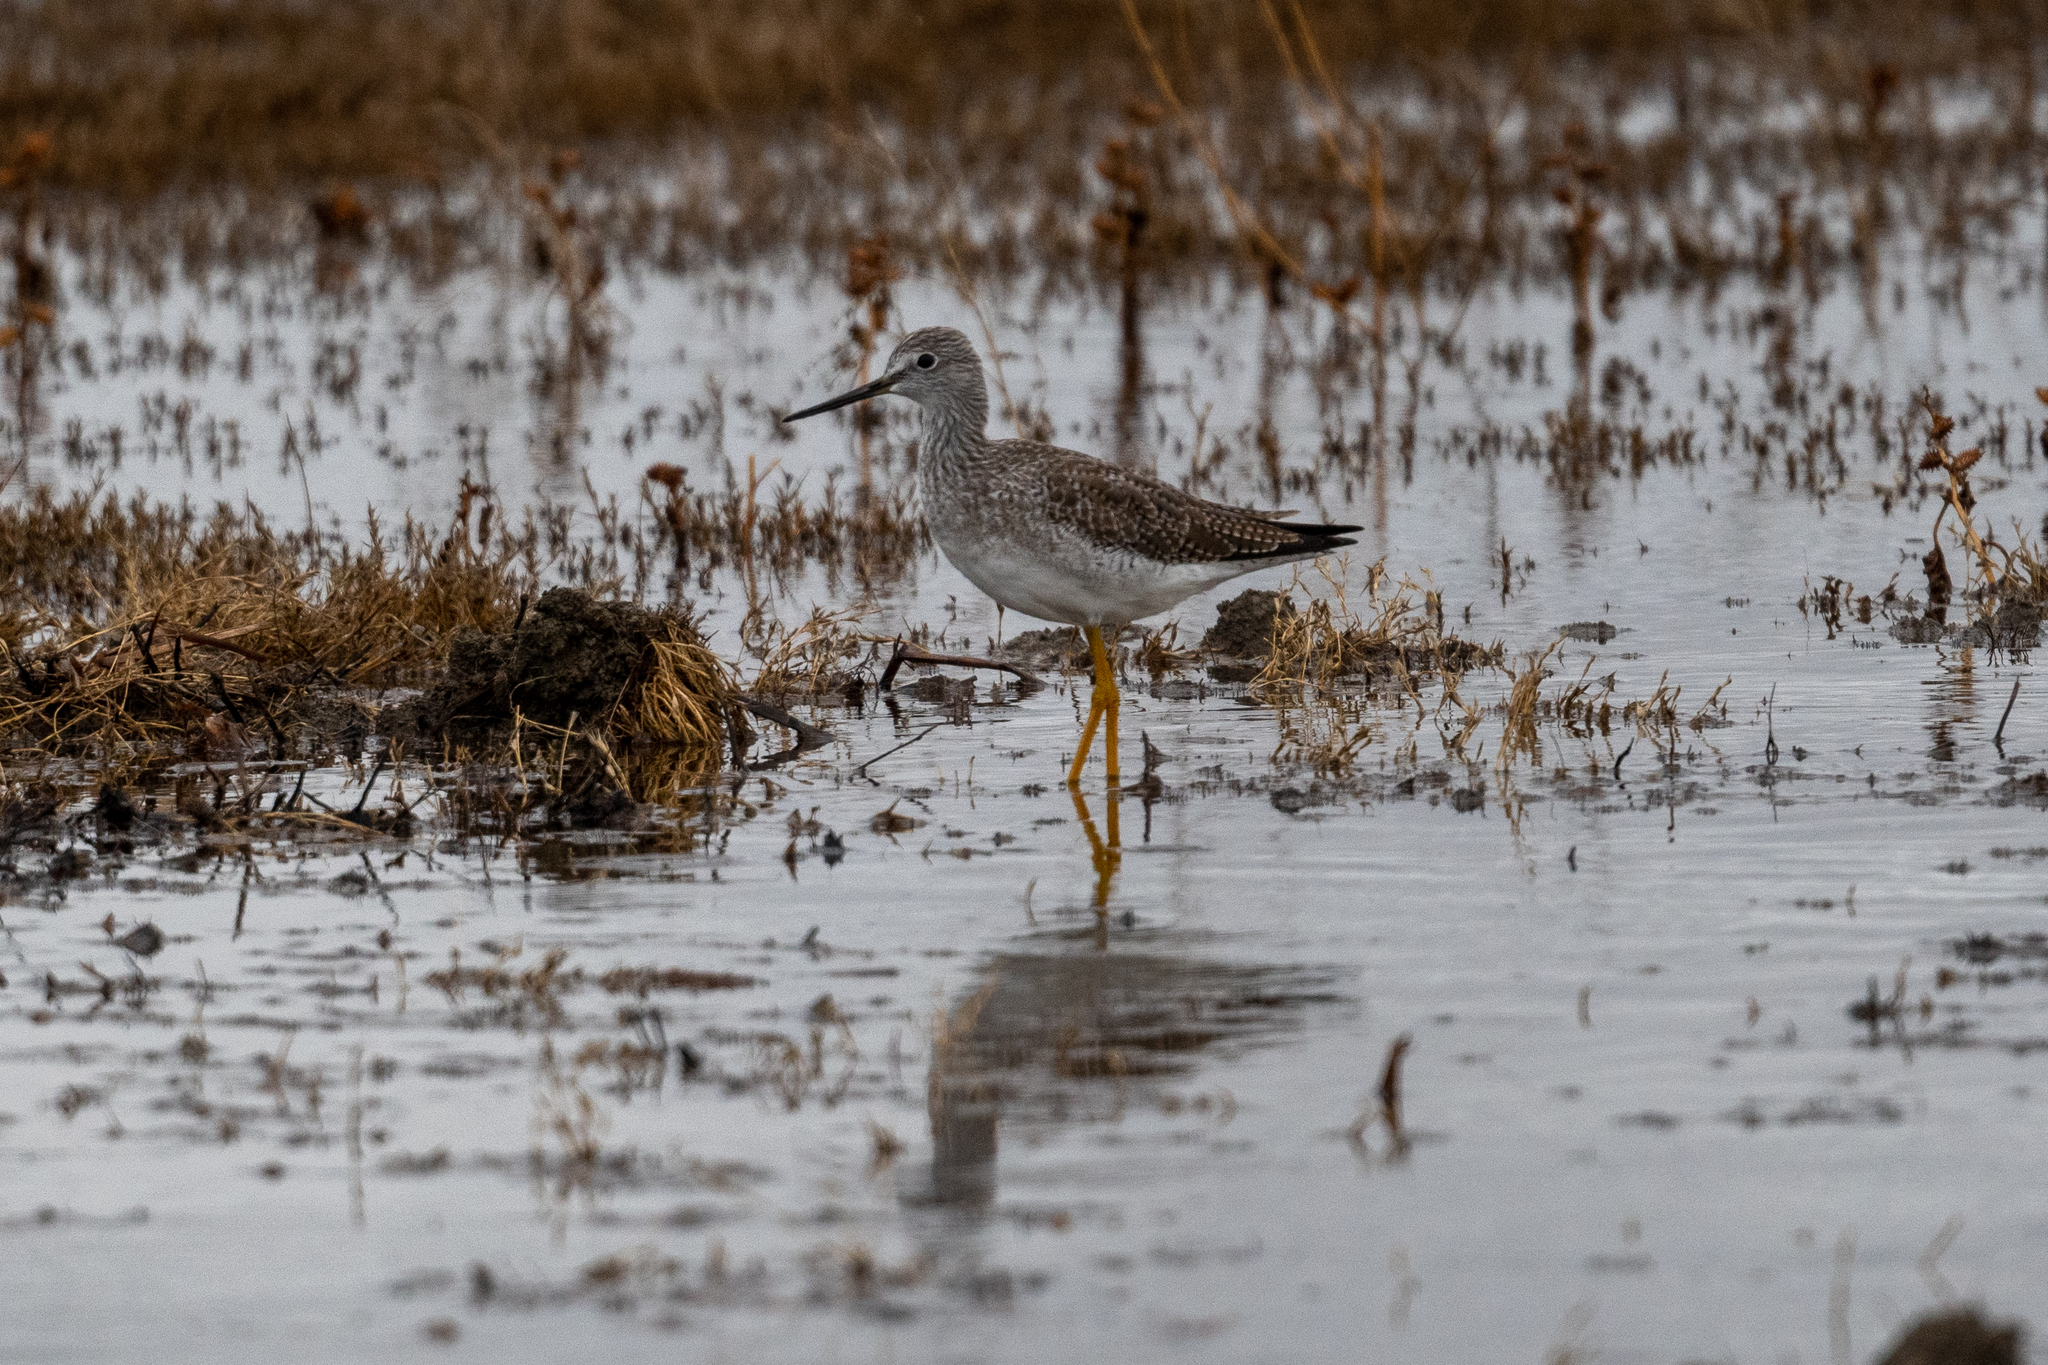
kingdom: Animalia
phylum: Chordata
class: Aves
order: Charadriiformes
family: Scolopacidae
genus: Tringa
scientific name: Tringa melanoleuca
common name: Greater yellowlegs
